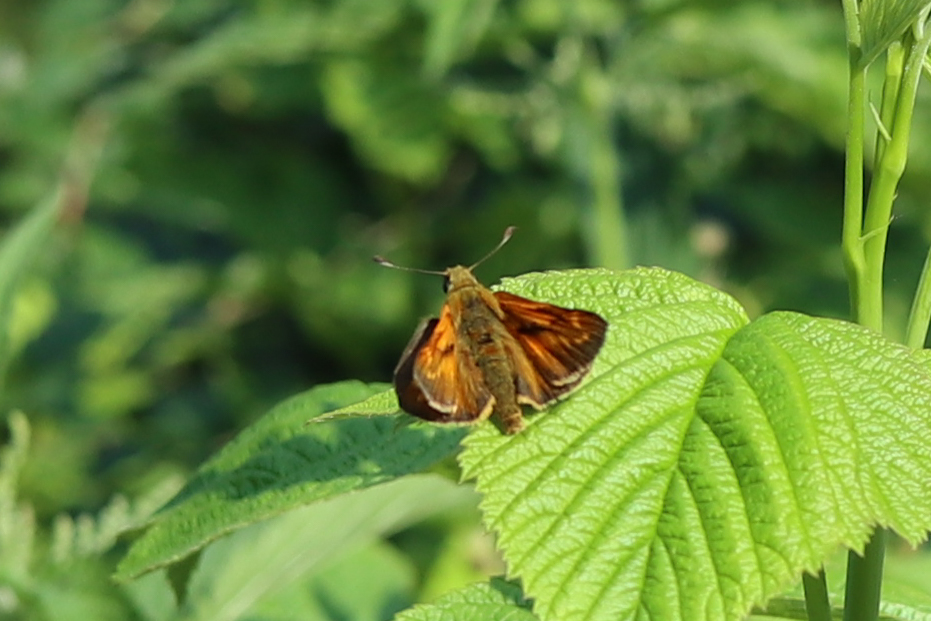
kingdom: Animalia
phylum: Arthropoda
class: Insecta
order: Lepidoptera
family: Hesperiidae
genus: Ochlodes
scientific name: Ochlodes venata
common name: Large skipper
